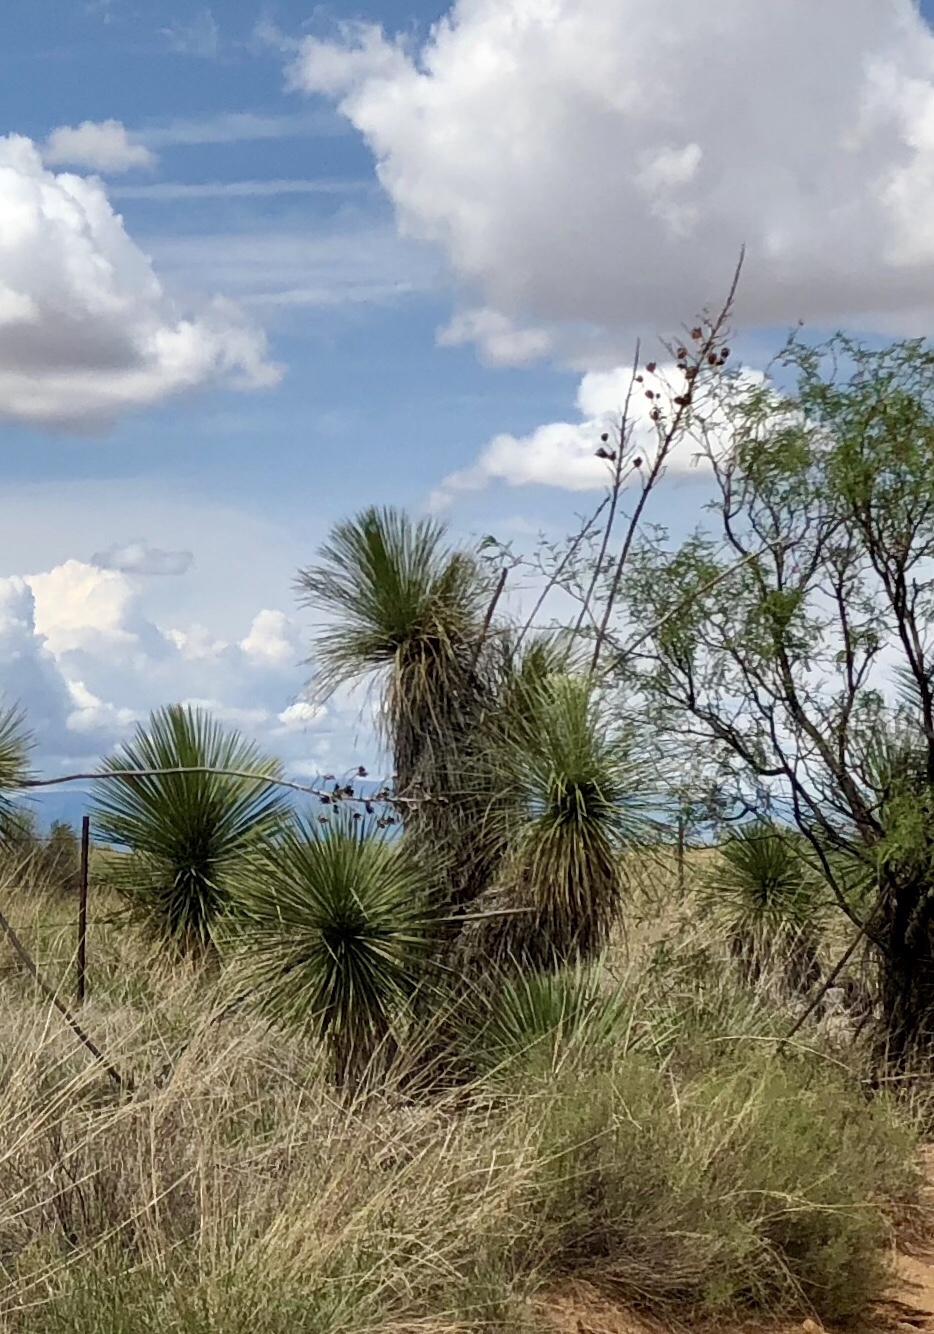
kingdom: Plantae
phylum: Tracheophyta
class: Liliopsida
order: Asparagales
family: Asparagaceae
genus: Yucca
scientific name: Yucca elata
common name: Palmella
